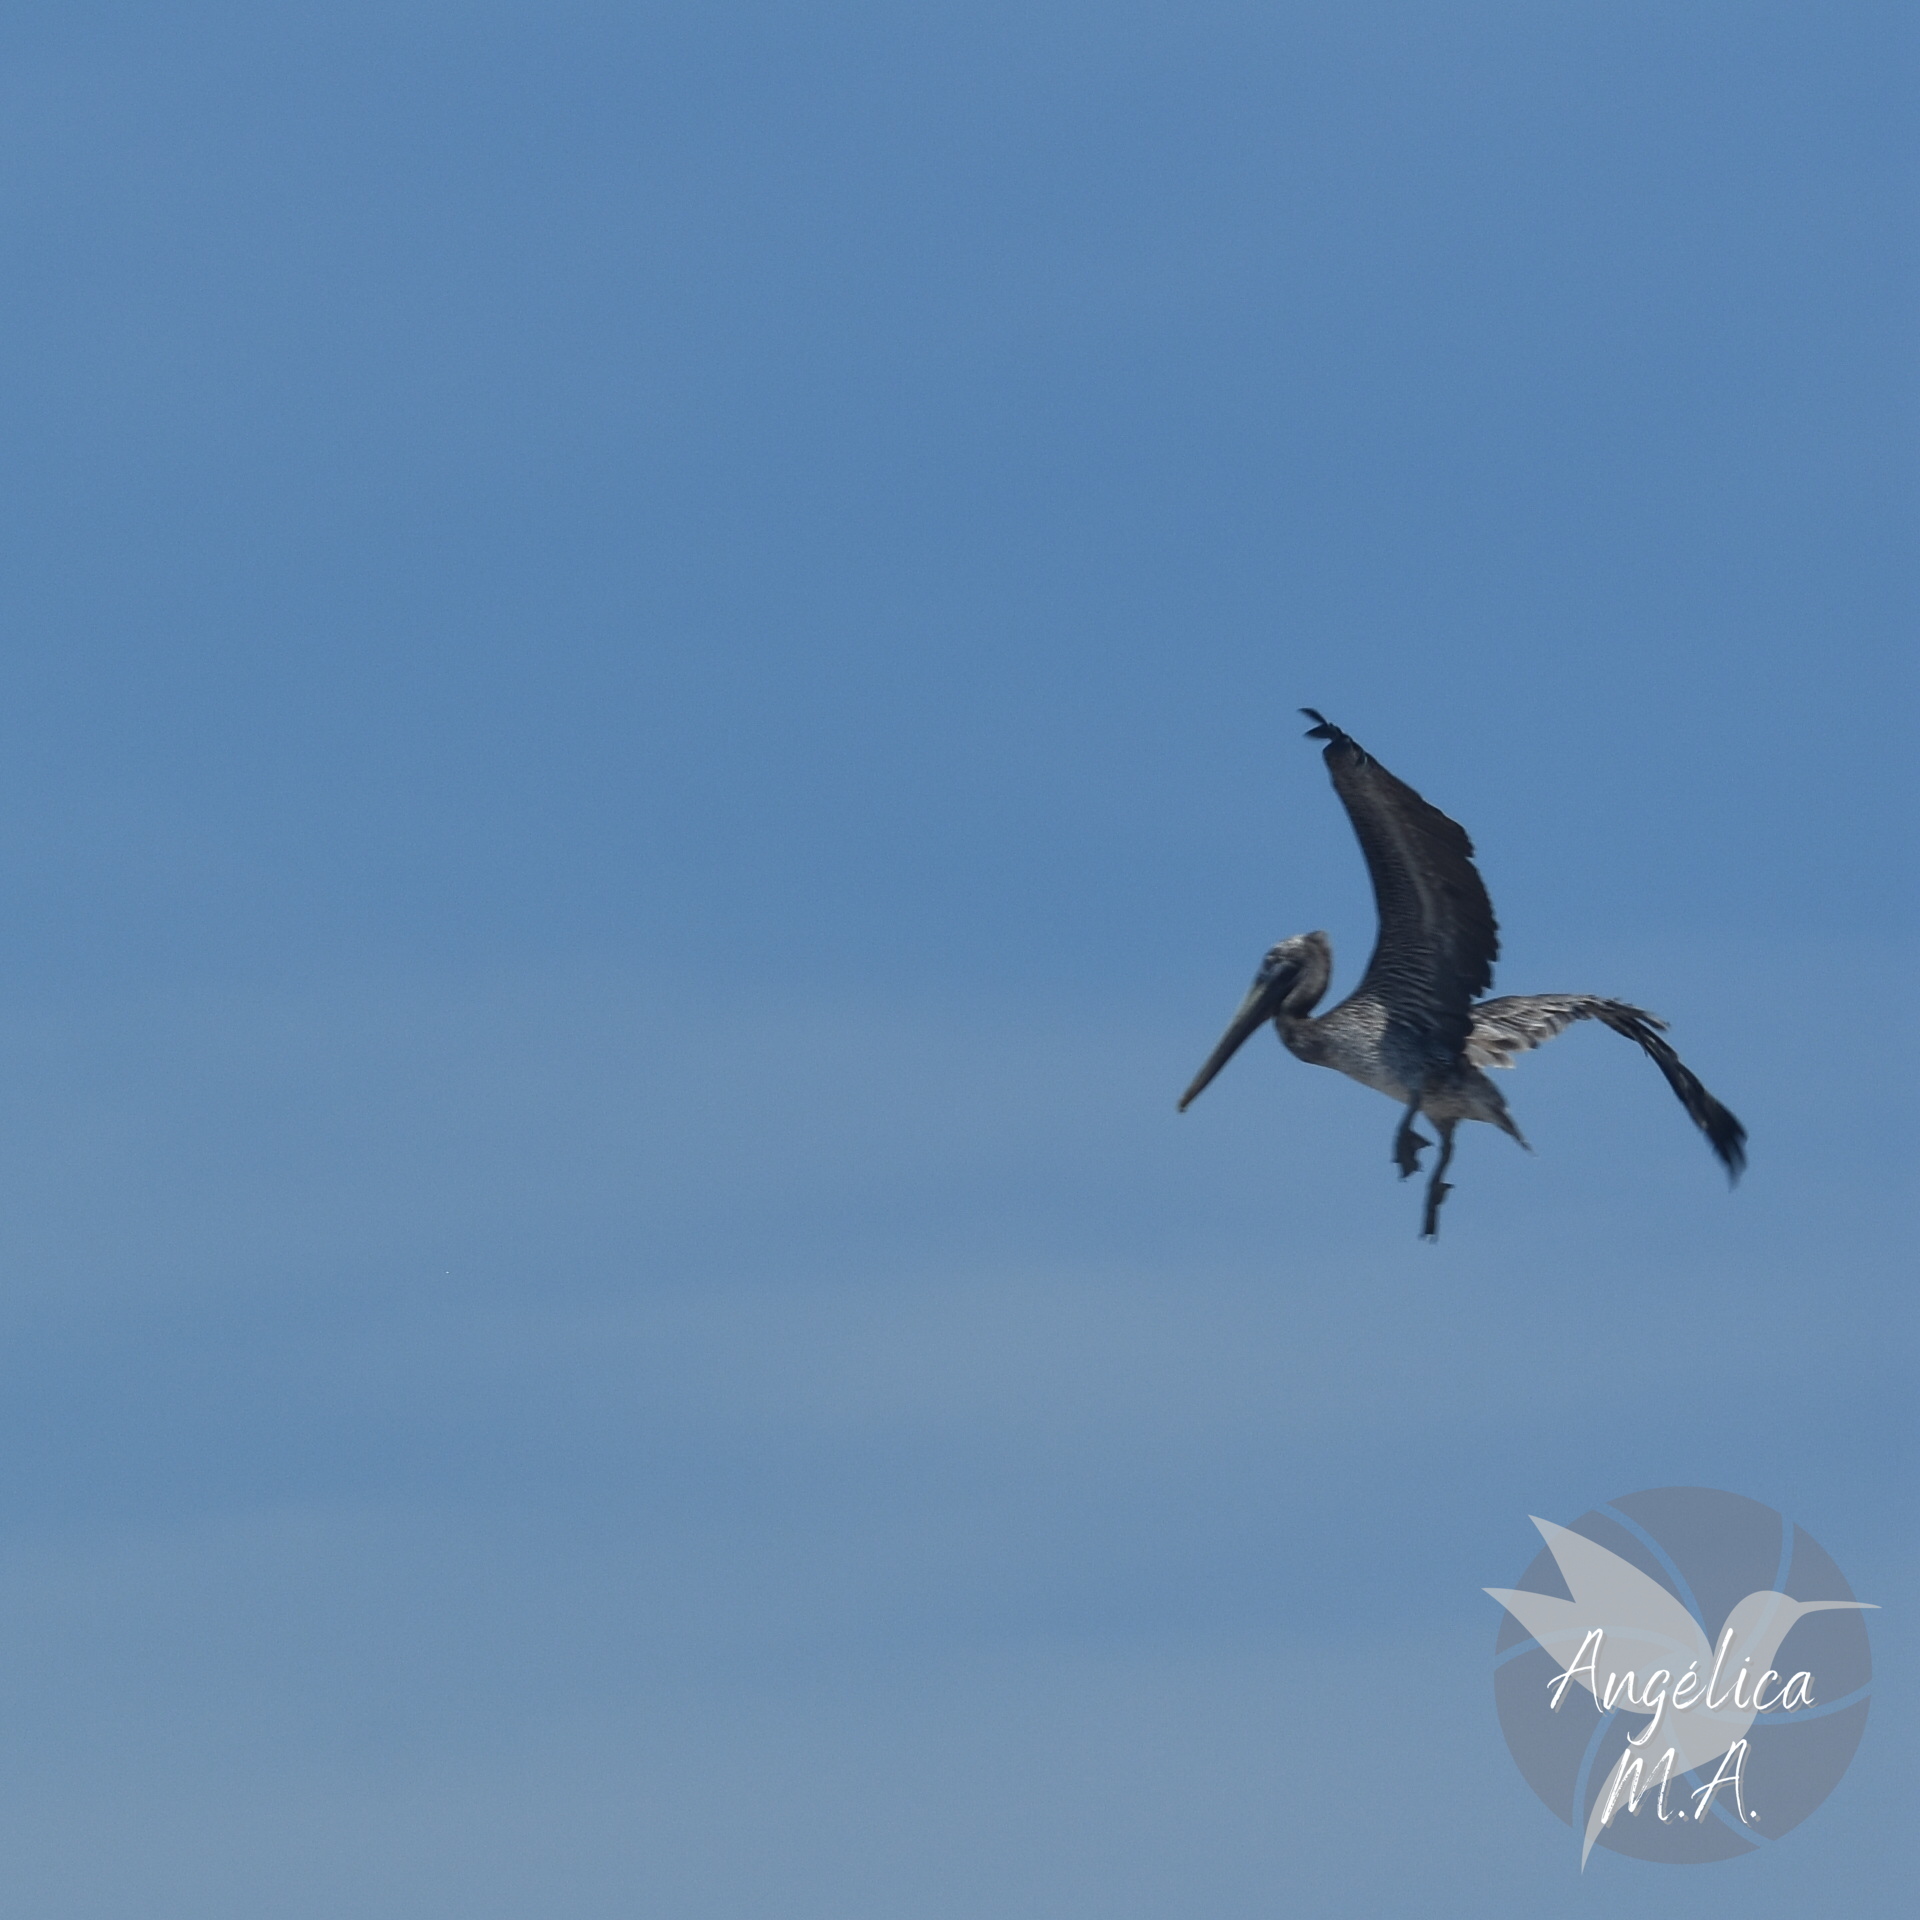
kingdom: Animalia
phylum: Chordata
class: Aves
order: Pelecaniformes
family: Pelecanidae
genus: Pelecanus
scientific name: Pelecanus occidentalis
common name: Brown pelican
